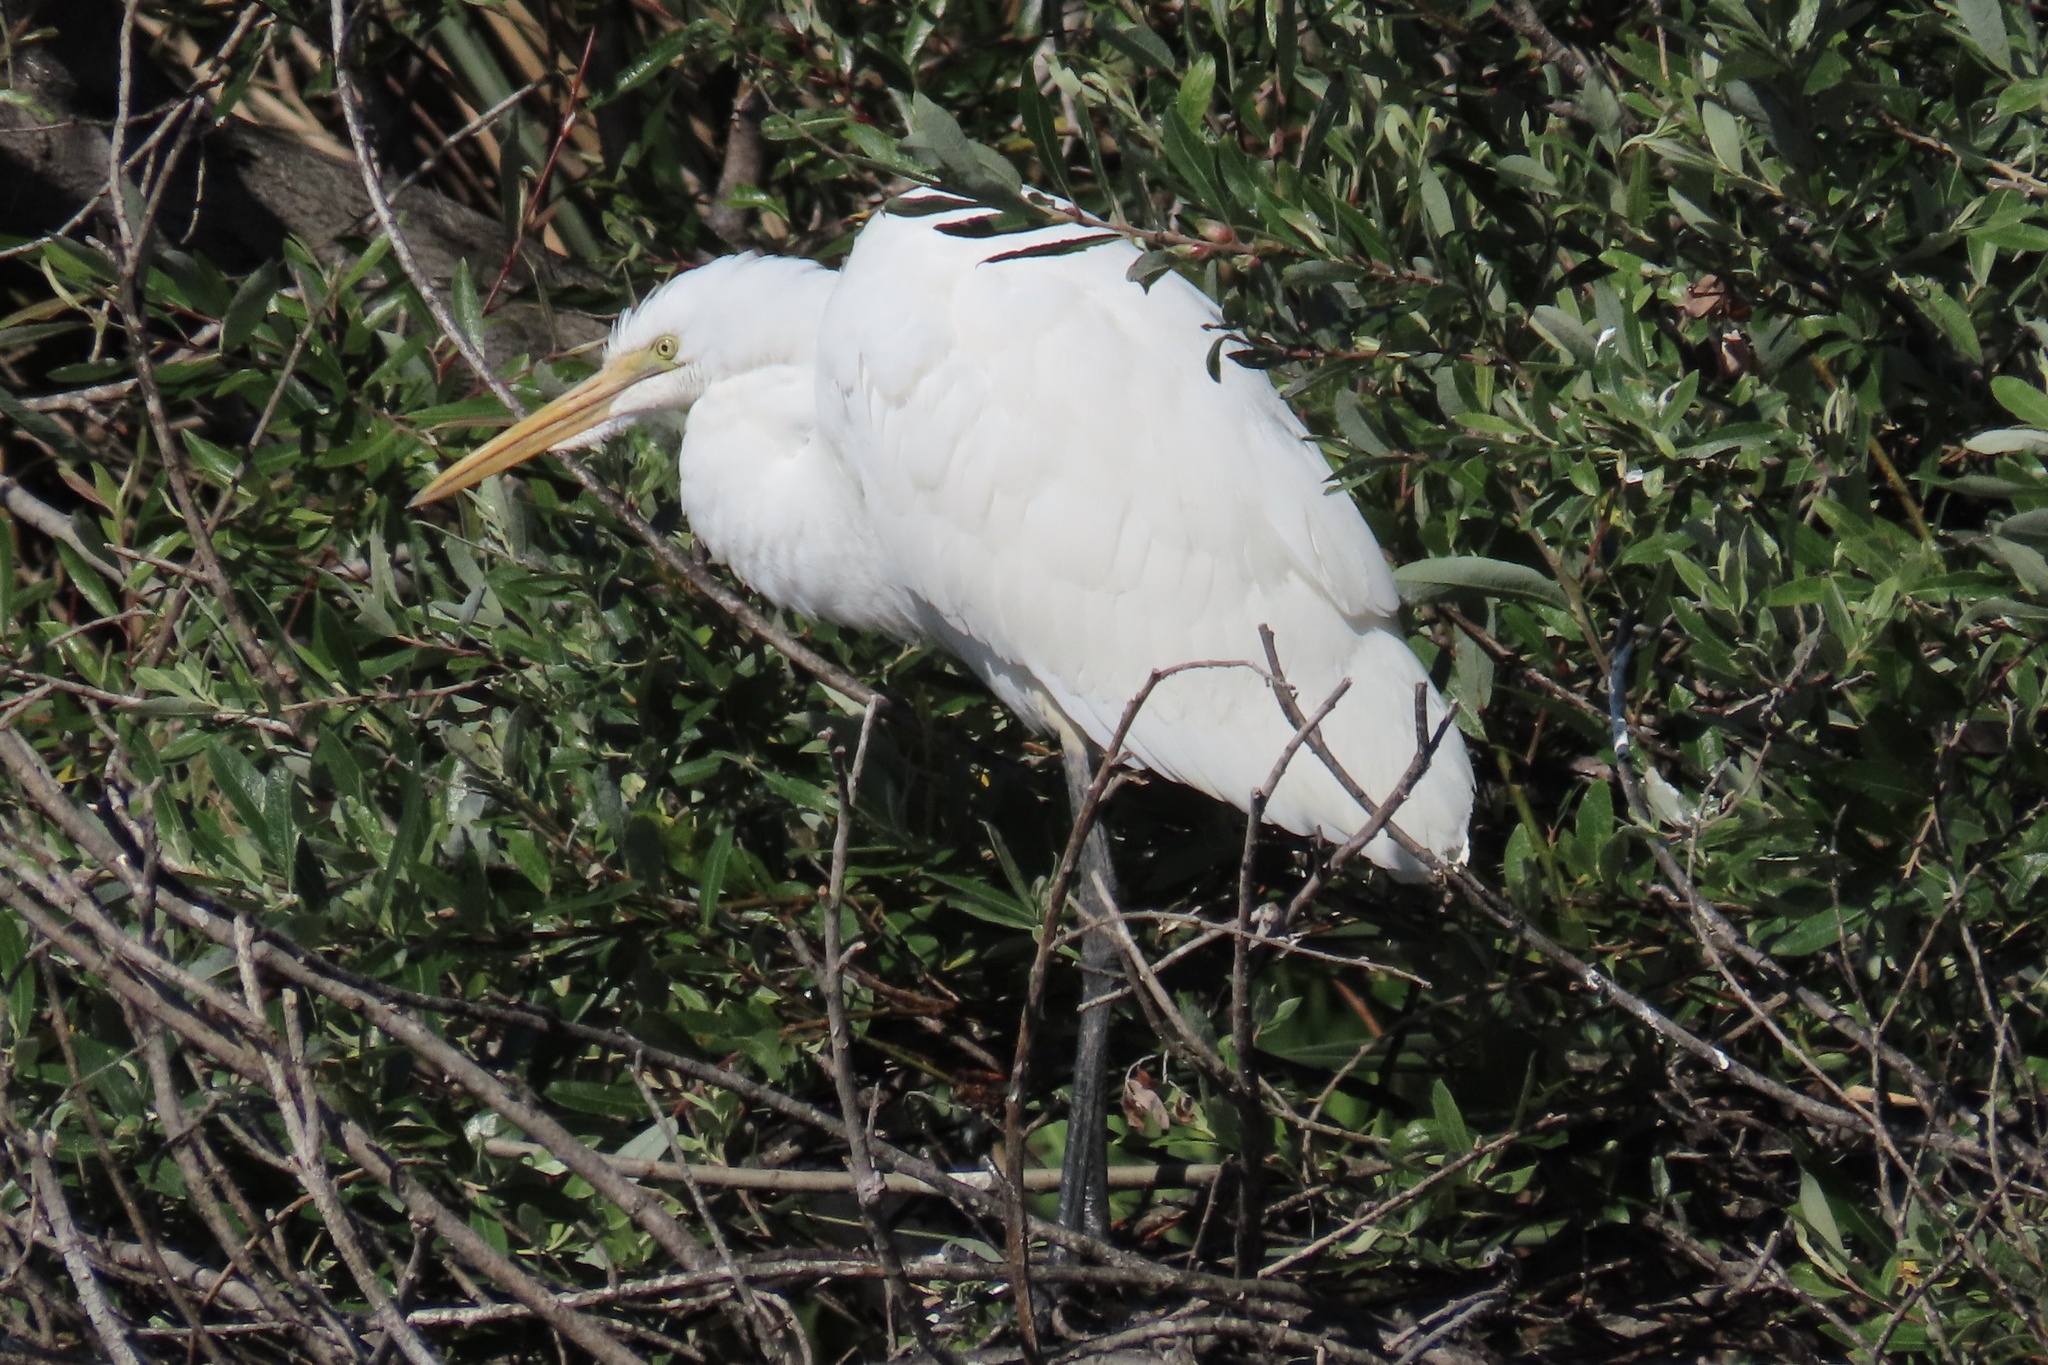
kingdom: Animalia
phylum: Chordata
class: Aves
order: Pelecaniformes
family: Ardeidae
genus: Ardea
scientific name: Ardea alba
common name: Great egret
